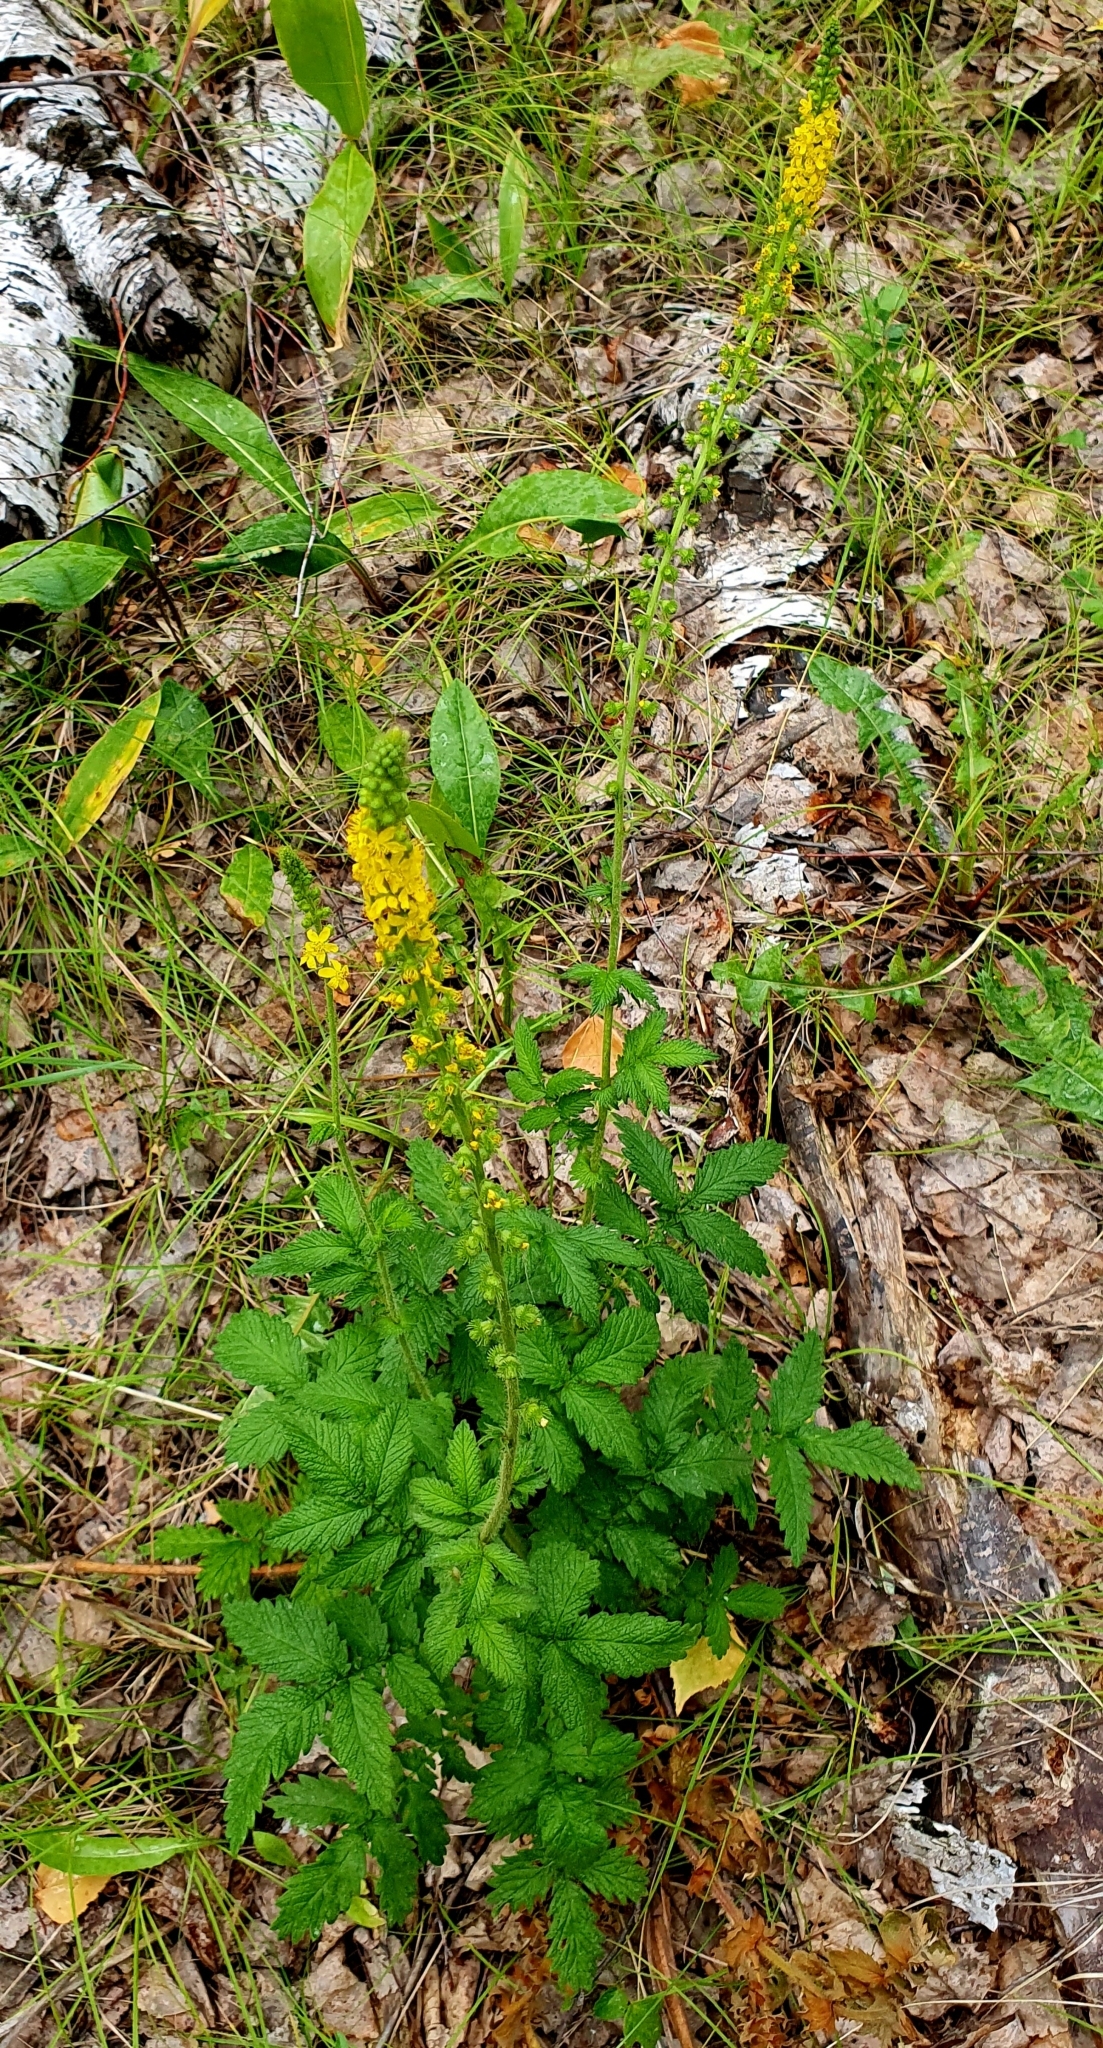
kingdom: Plantae
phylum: Tracheophyta
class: Magnoliopsida
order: Rosales
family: Rosaceae
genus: Agrimonia
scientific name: Agrimonia eupatoria
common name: Agrimony
